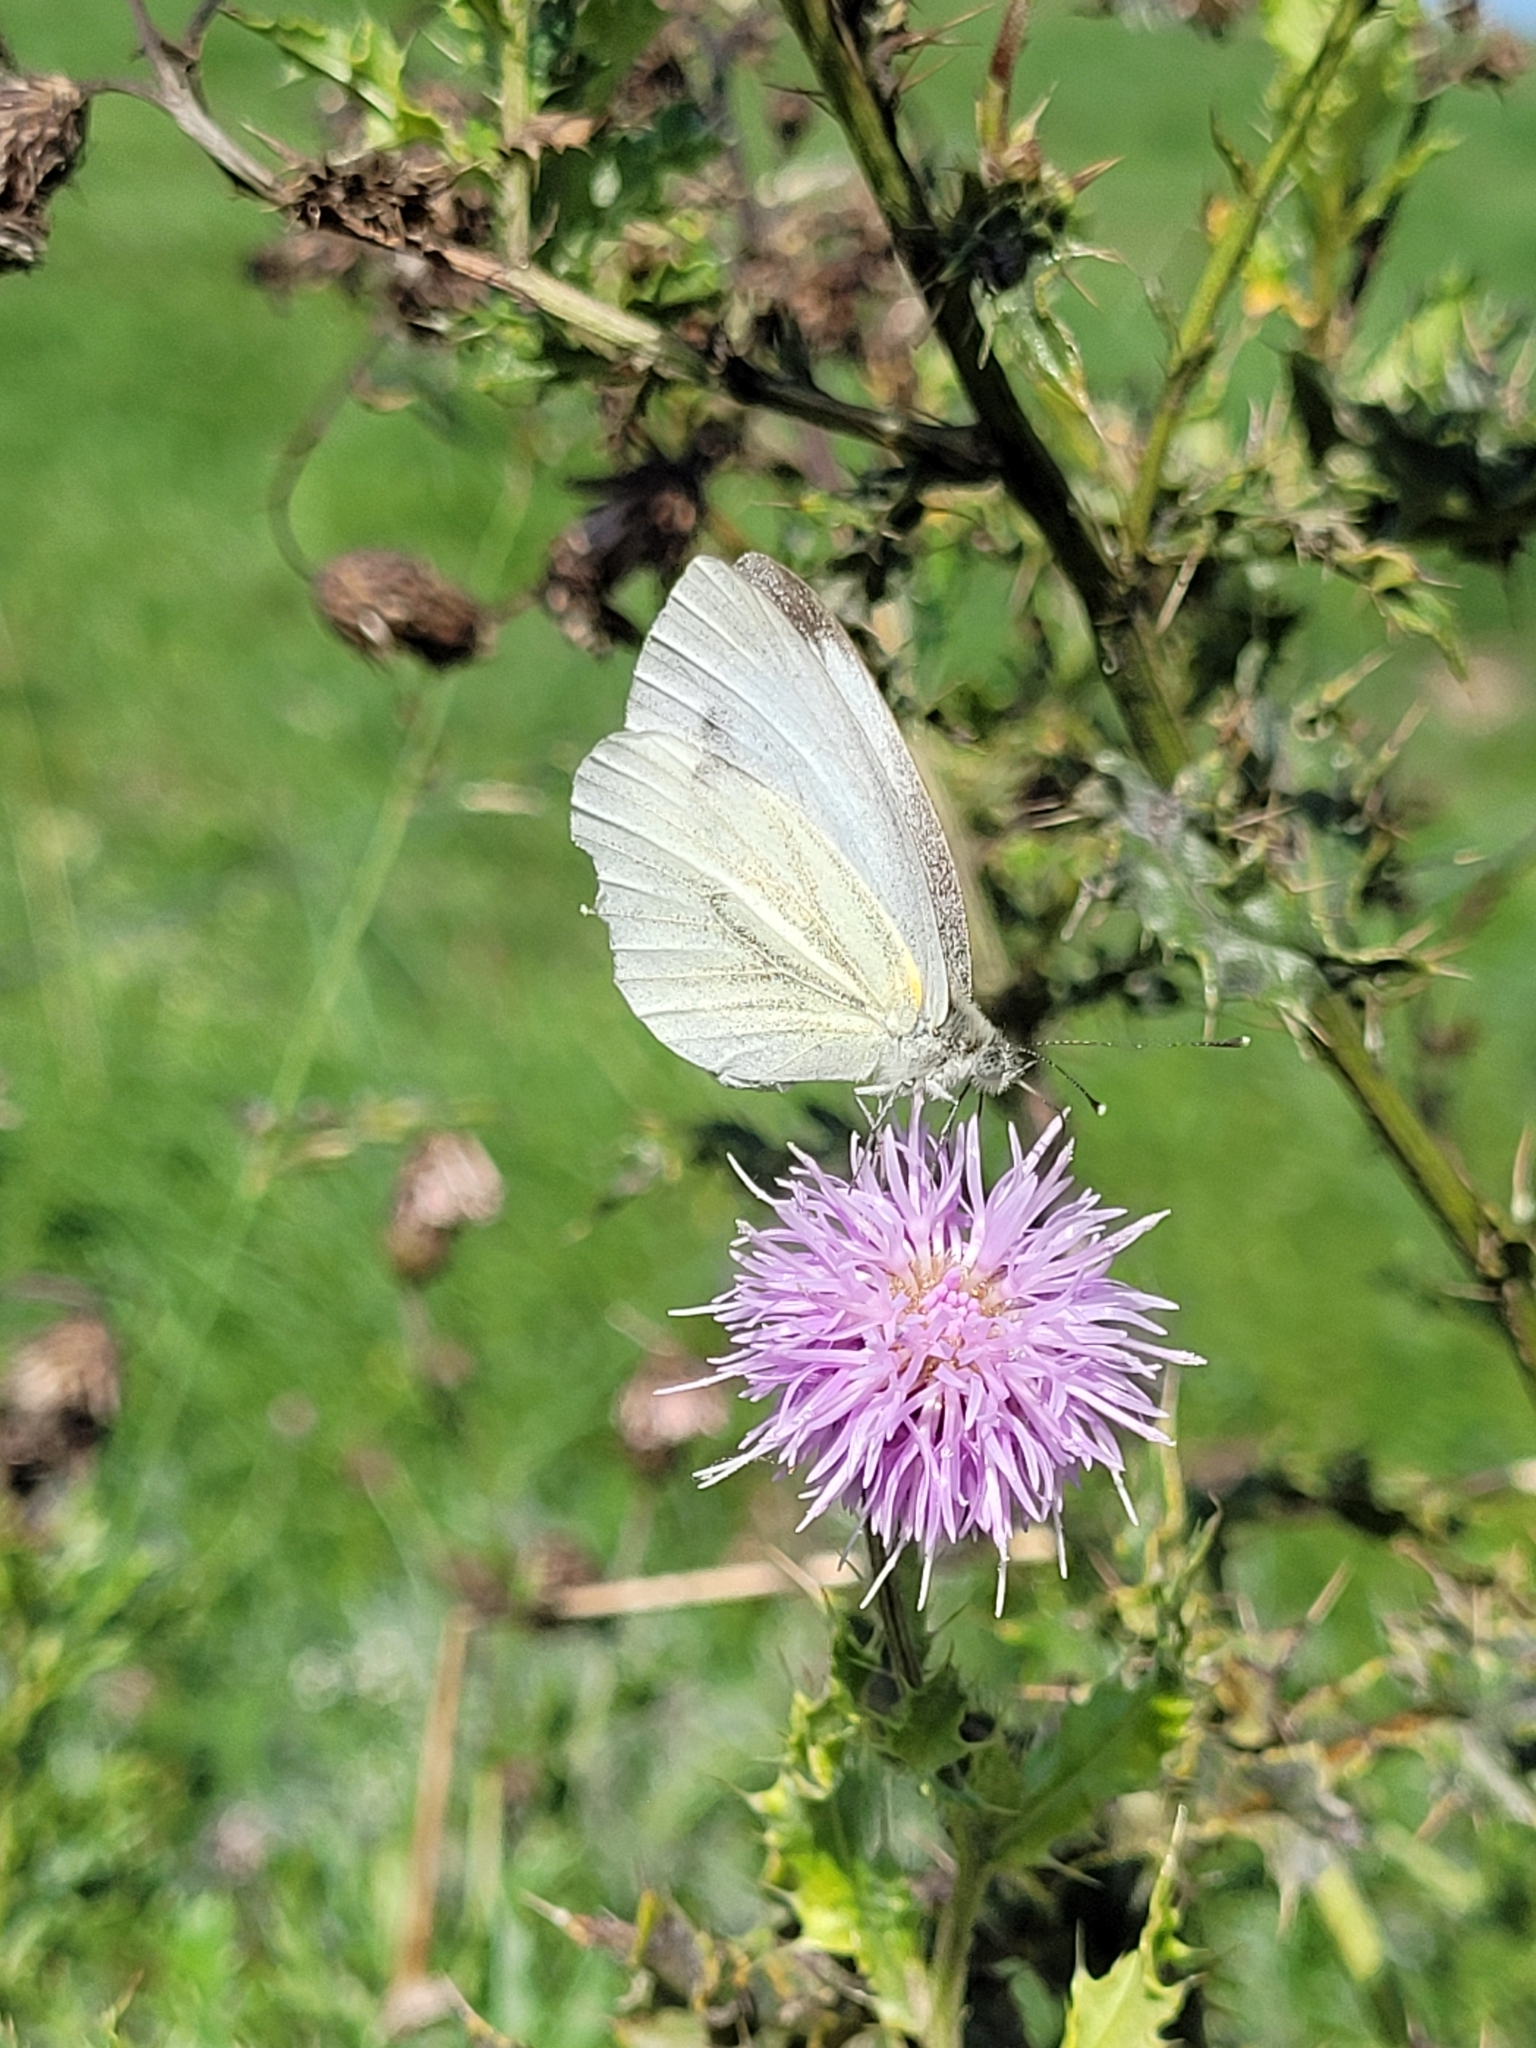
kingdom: Animalia
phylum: Arthropoda
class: Insecta
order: Lepidoptera
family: Pieridae
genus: Pieris
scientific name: Pieris napi
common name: Green-veined white
